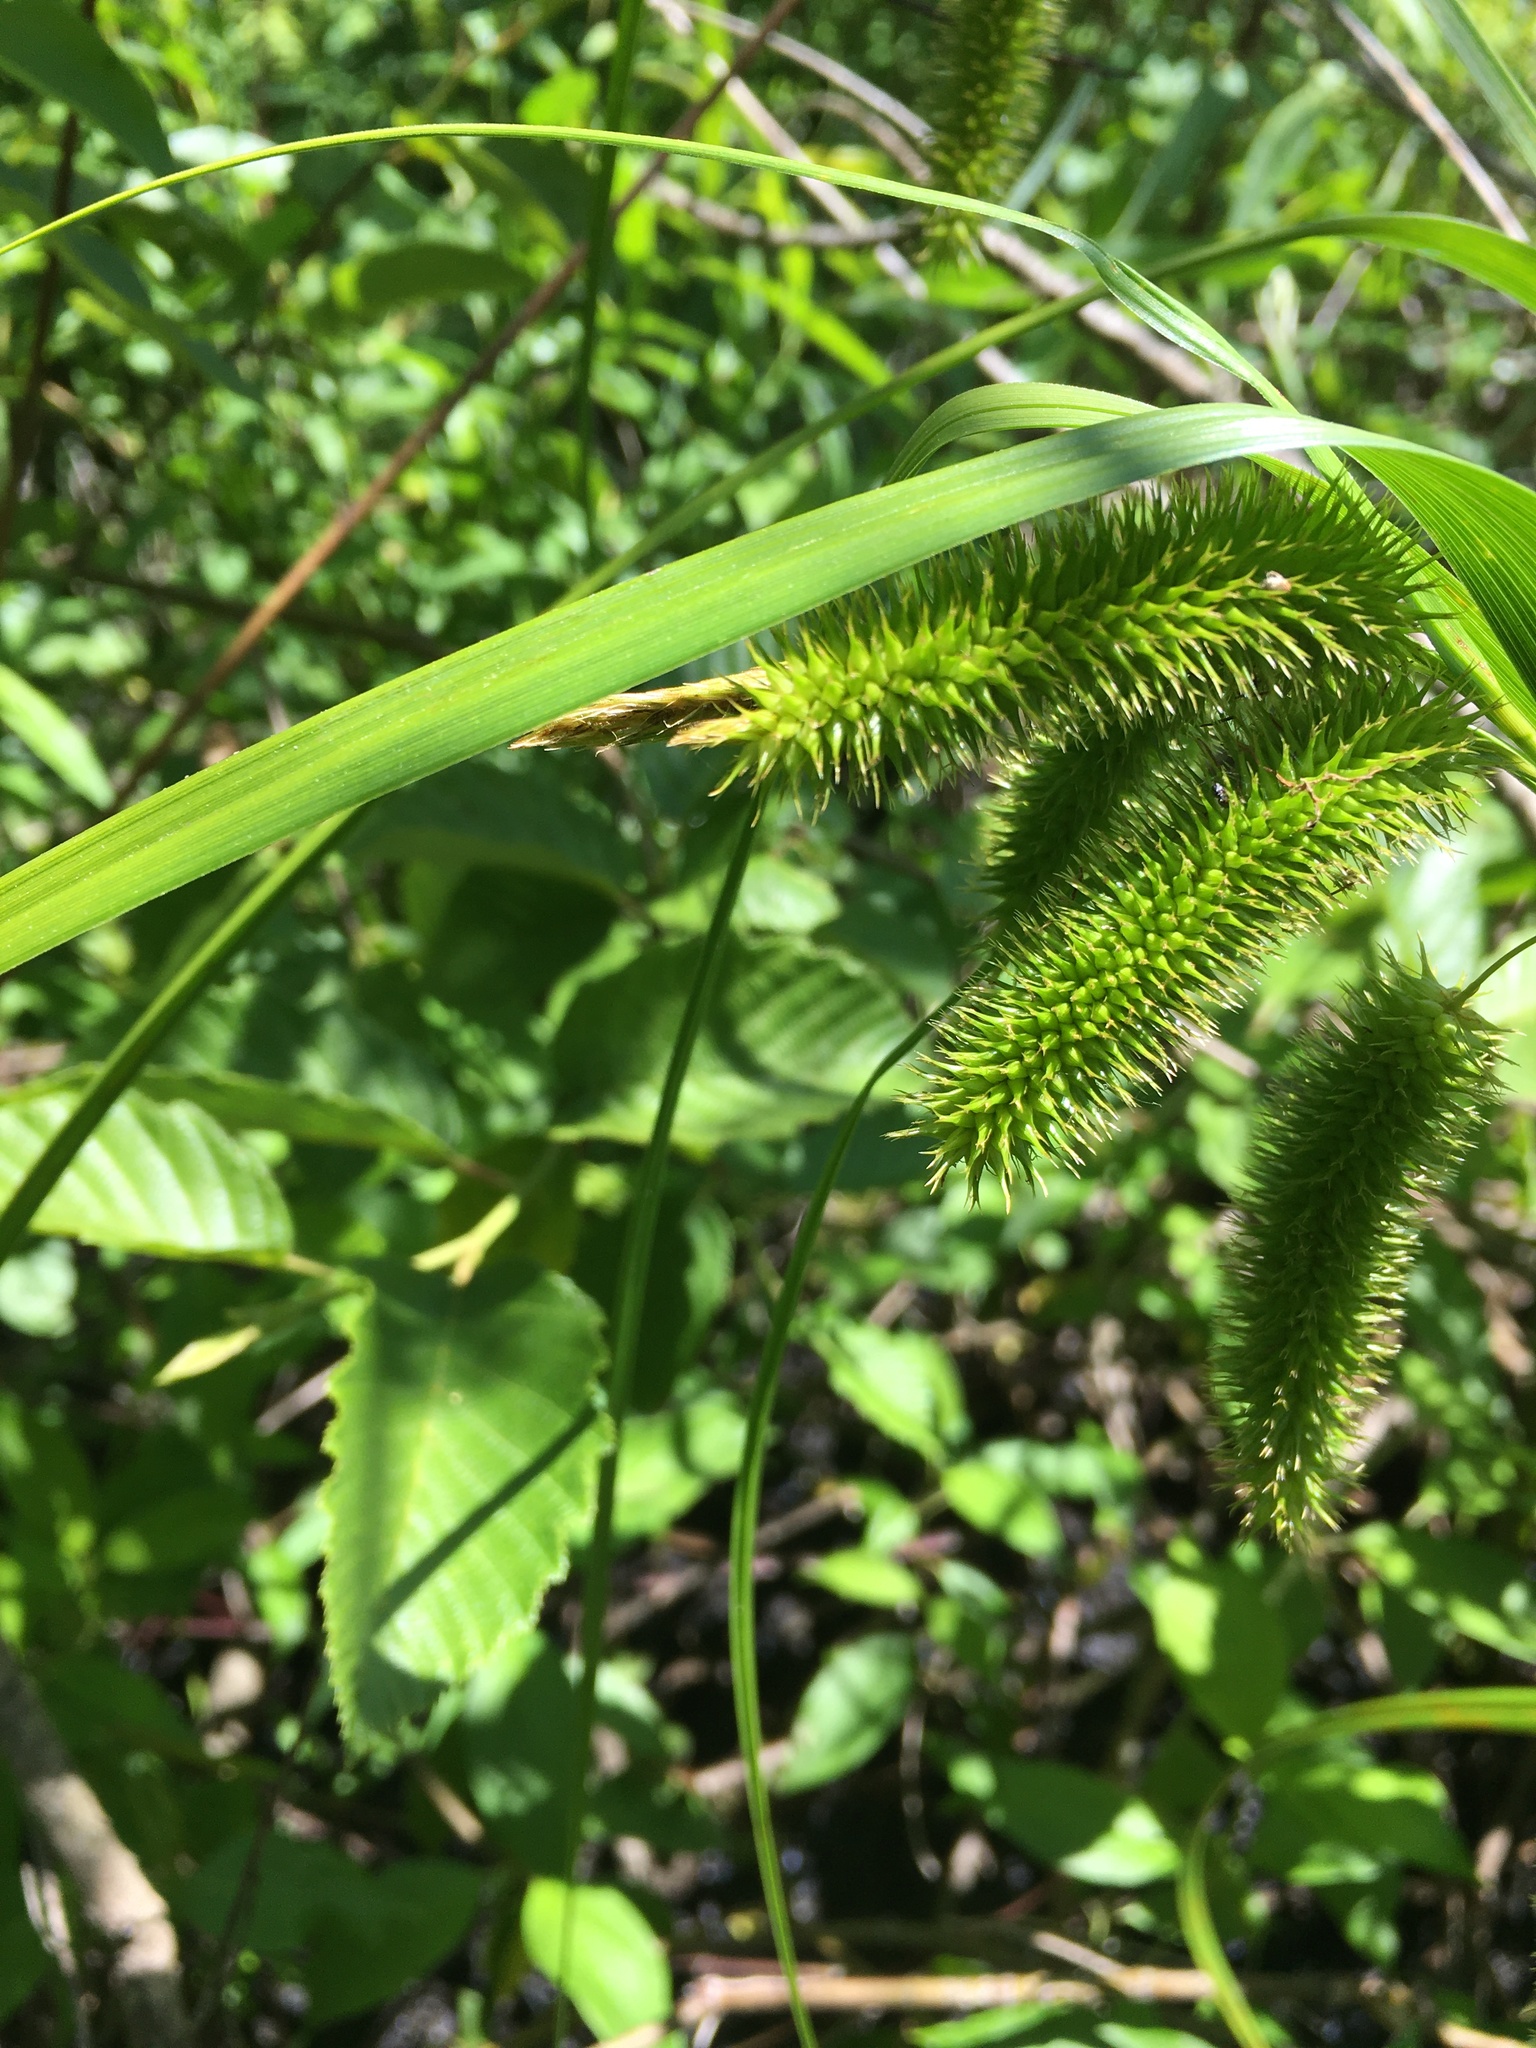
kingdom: Plantae
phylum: Tracheophyta
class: Liliopsida
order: Poales
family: Cyperaceae
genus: Carex
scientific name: Carex comosa
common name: Bristly sedge
